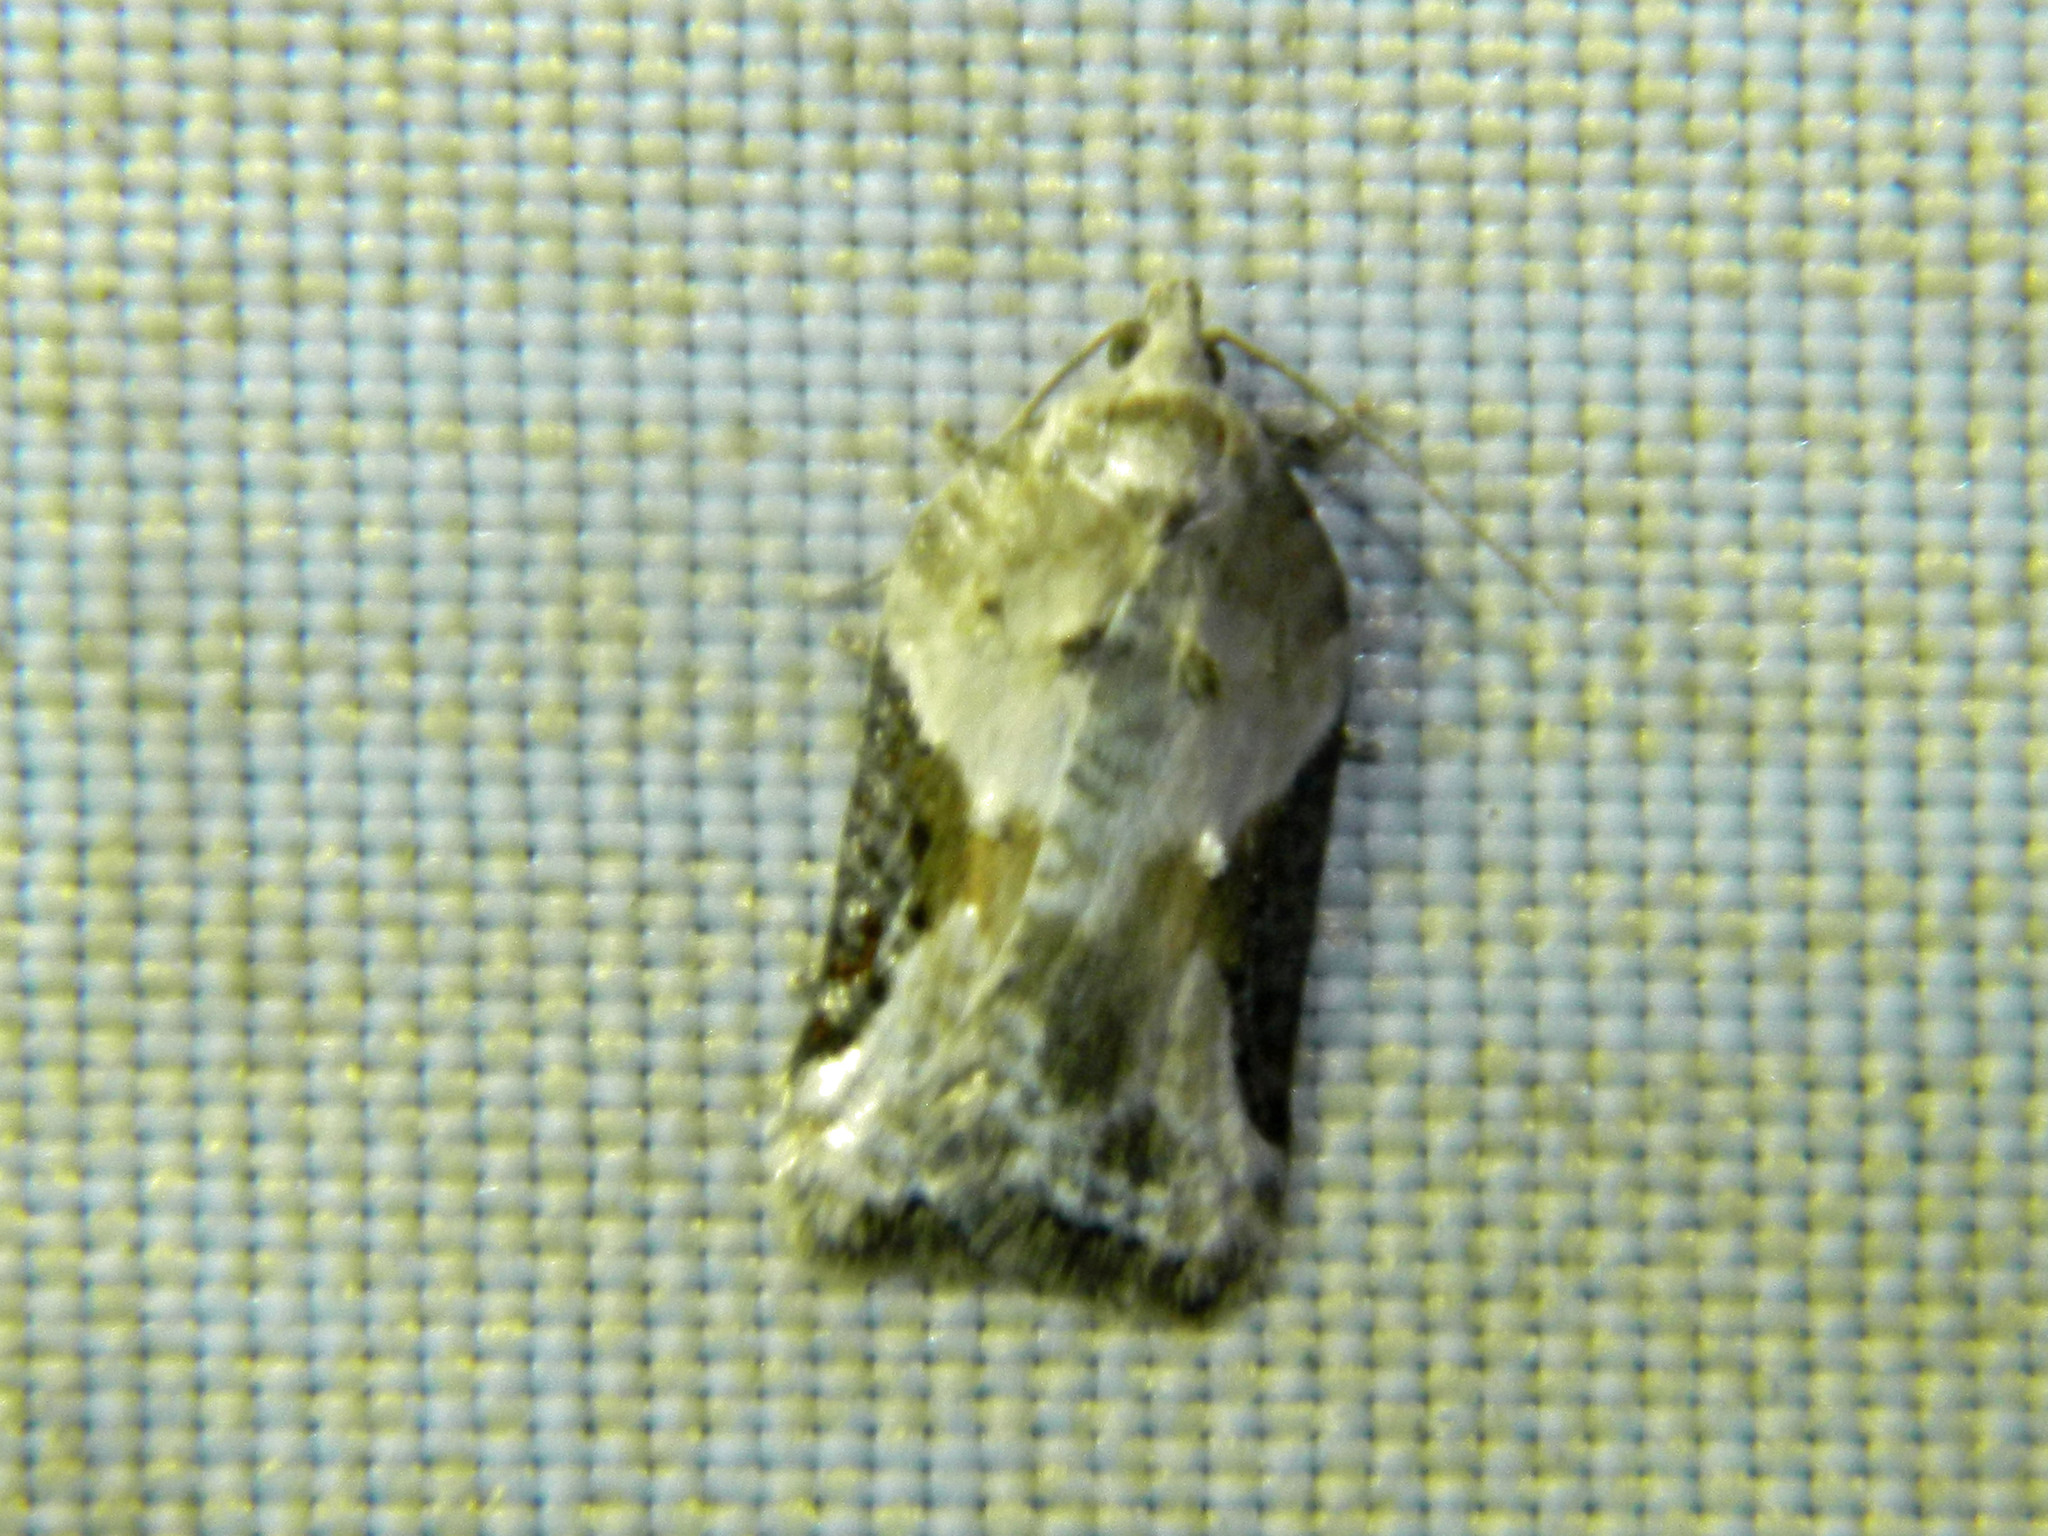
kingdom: Animalia
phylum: Arthropoda
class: Insecta
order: Lepidoptera
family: Tortricidae
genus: Acleris
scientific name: Acleris forbesana
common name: Forbes' acleris moth
